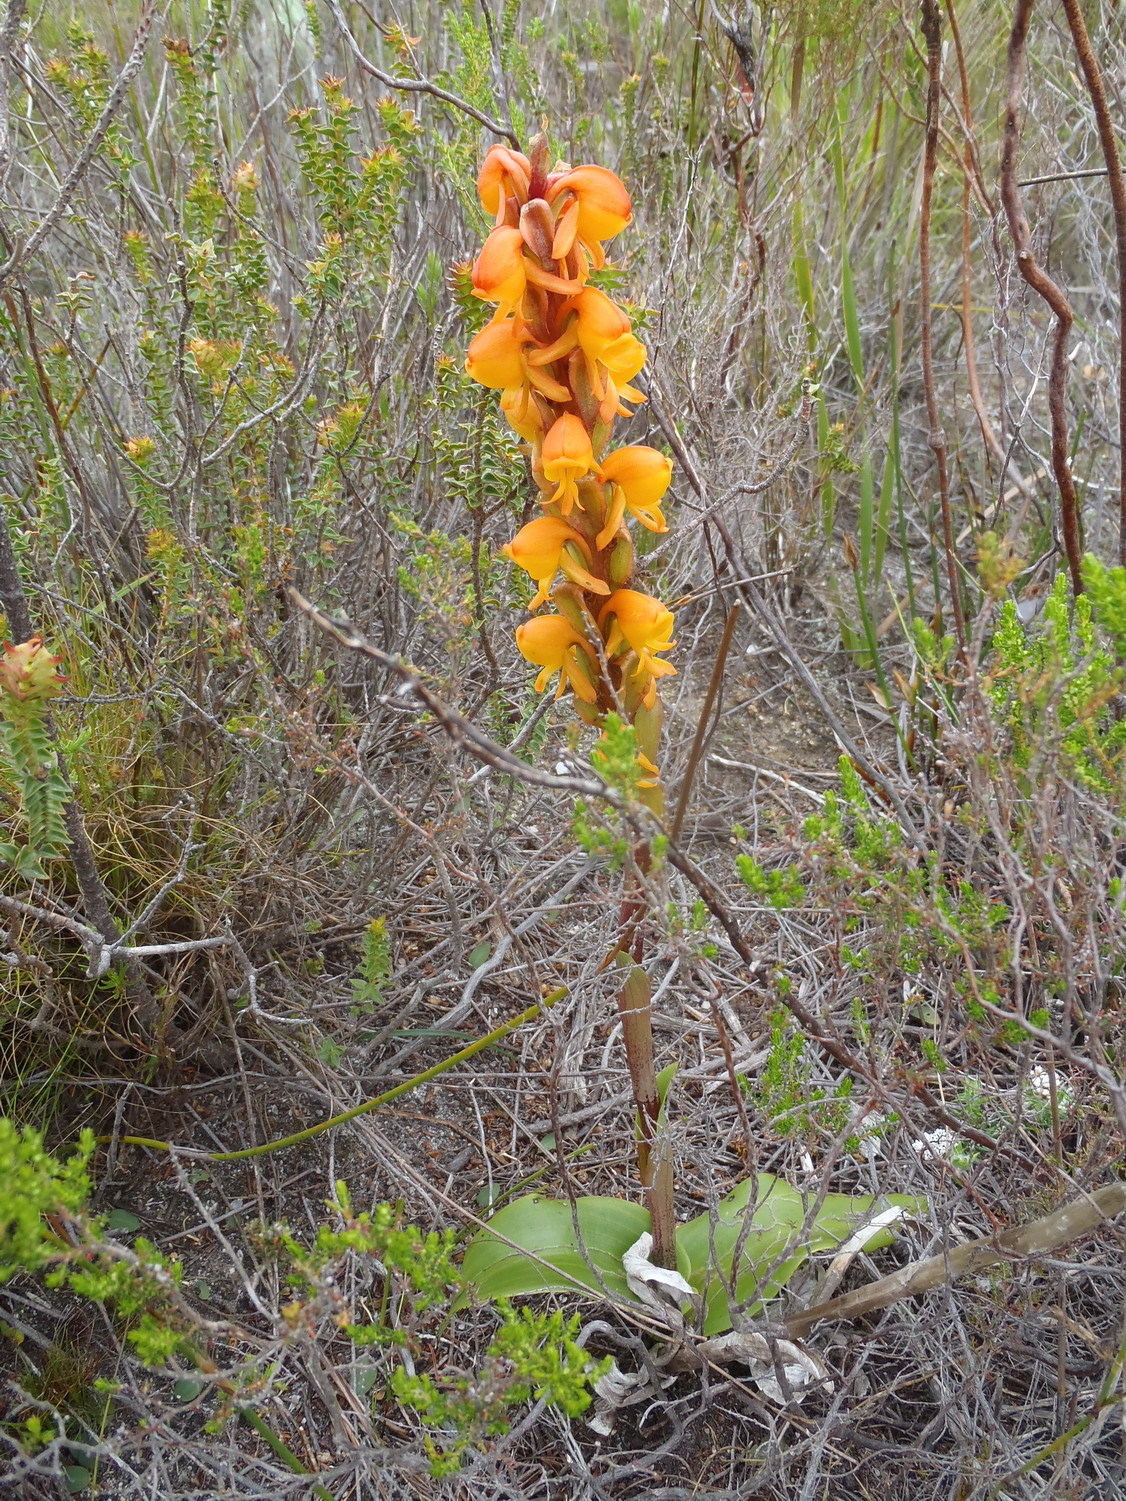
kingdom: Plantae
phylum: Tracheophyta
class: Liliopsida
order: Asparagales
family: Orchidaceae
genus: Satyrium
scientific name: Satyrium coriifolium
